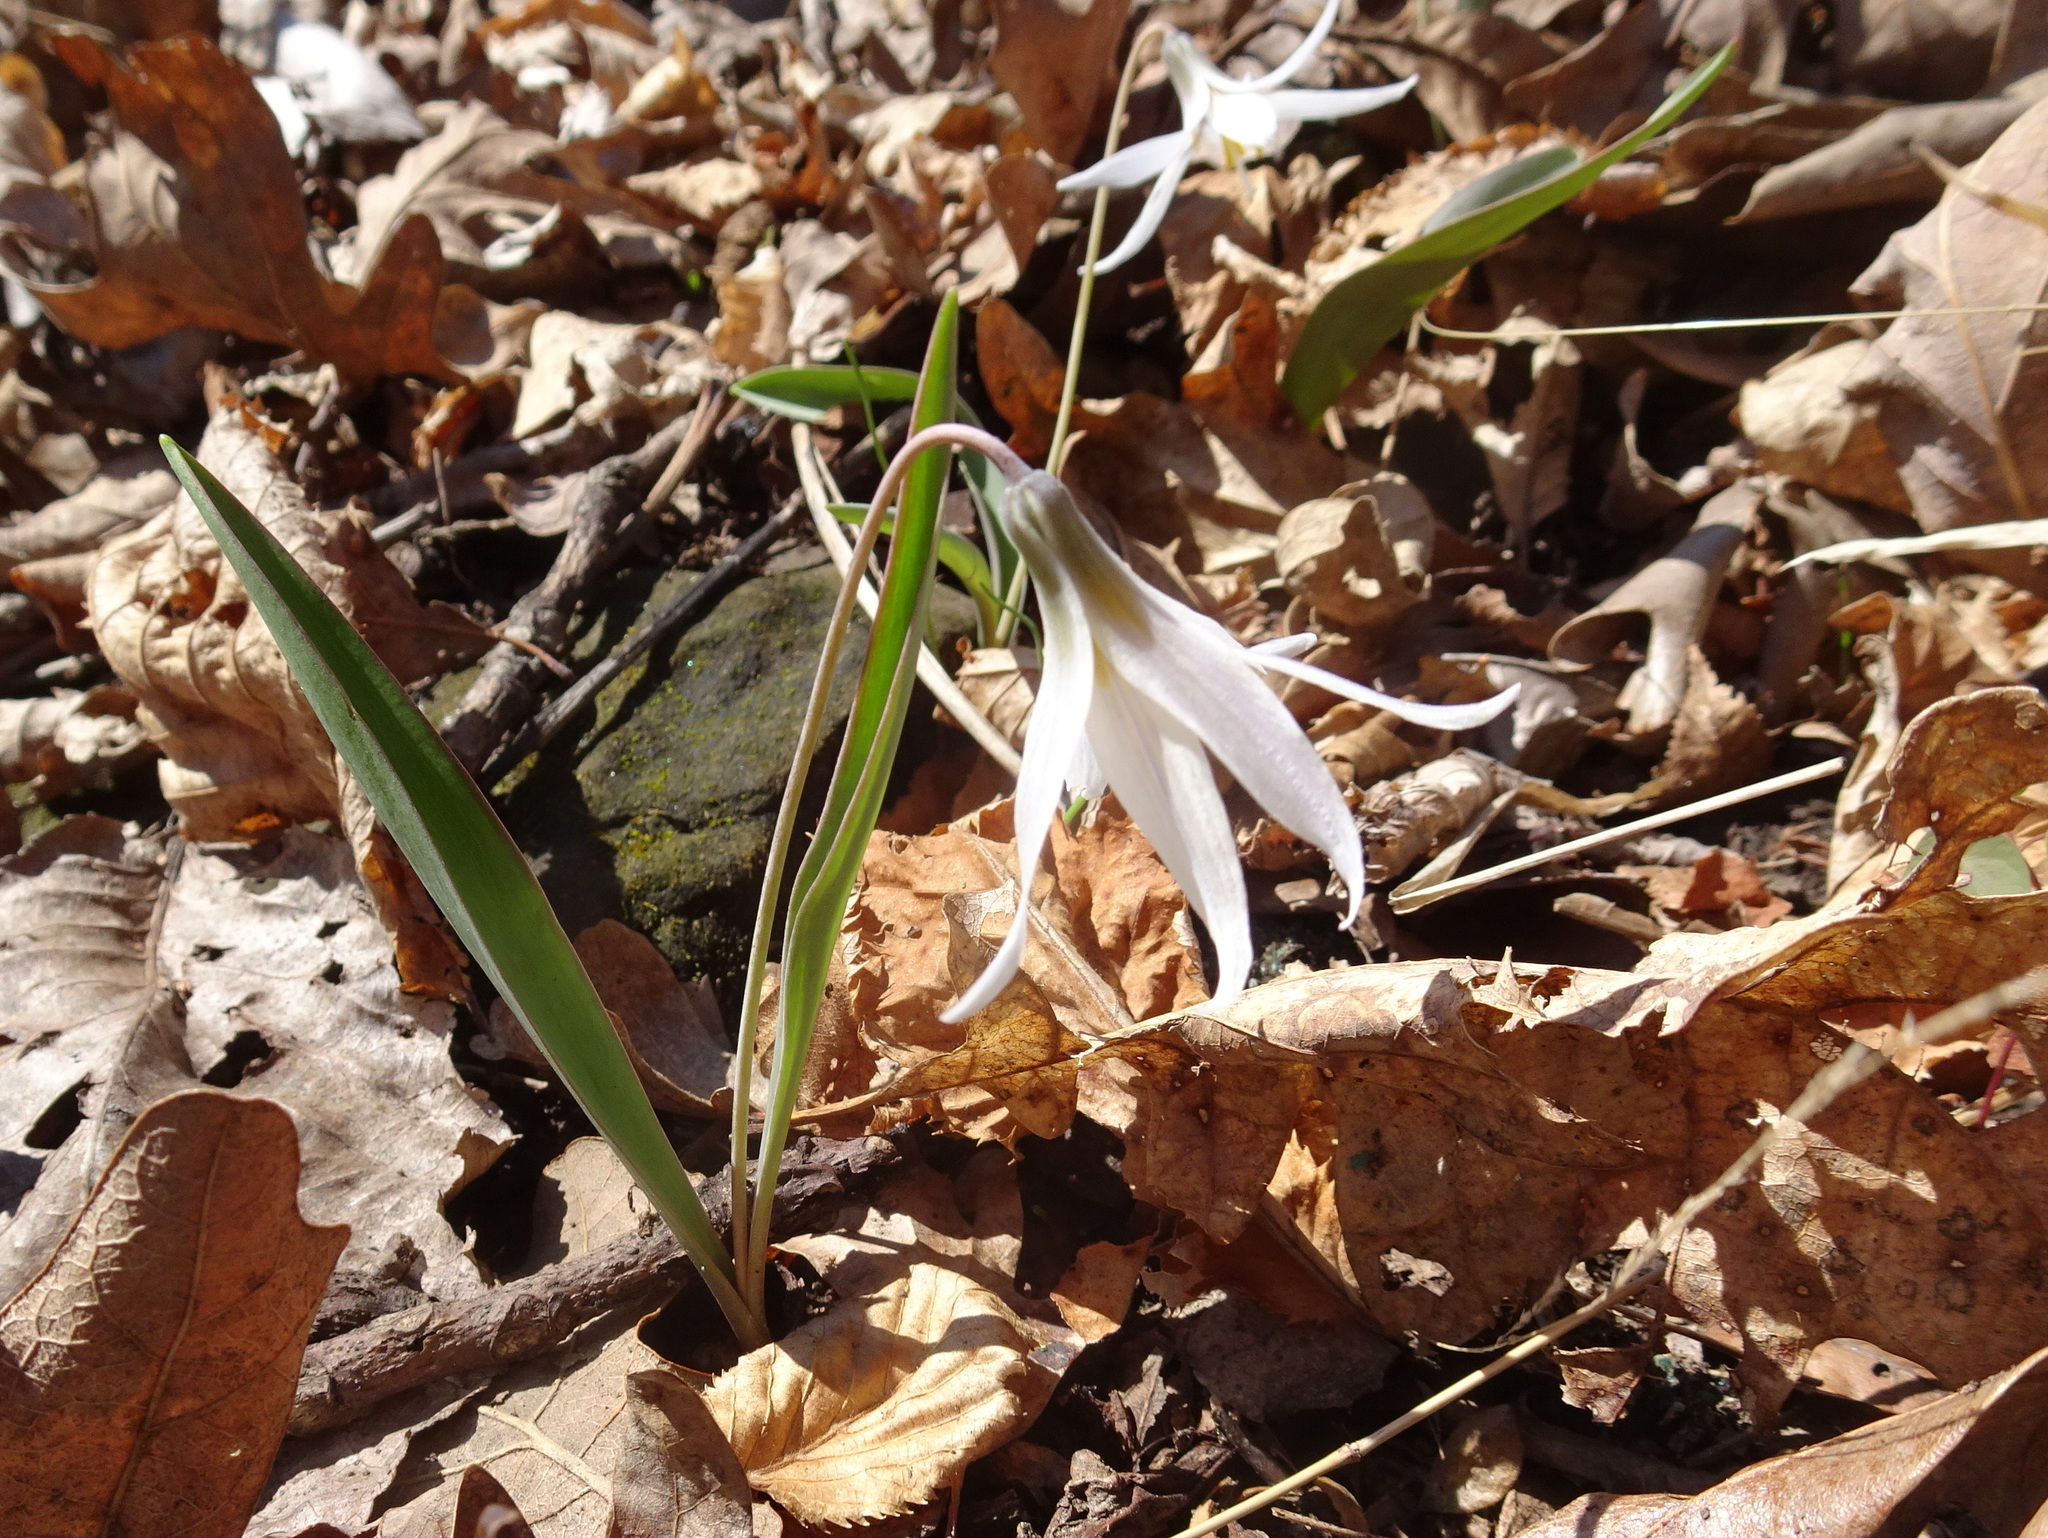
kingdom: Plantae
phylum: Tracheophyta
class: Liliopsida
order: Liliales
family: Liliaceae
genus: Erythronium
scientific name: Erythronium mesochoreum
